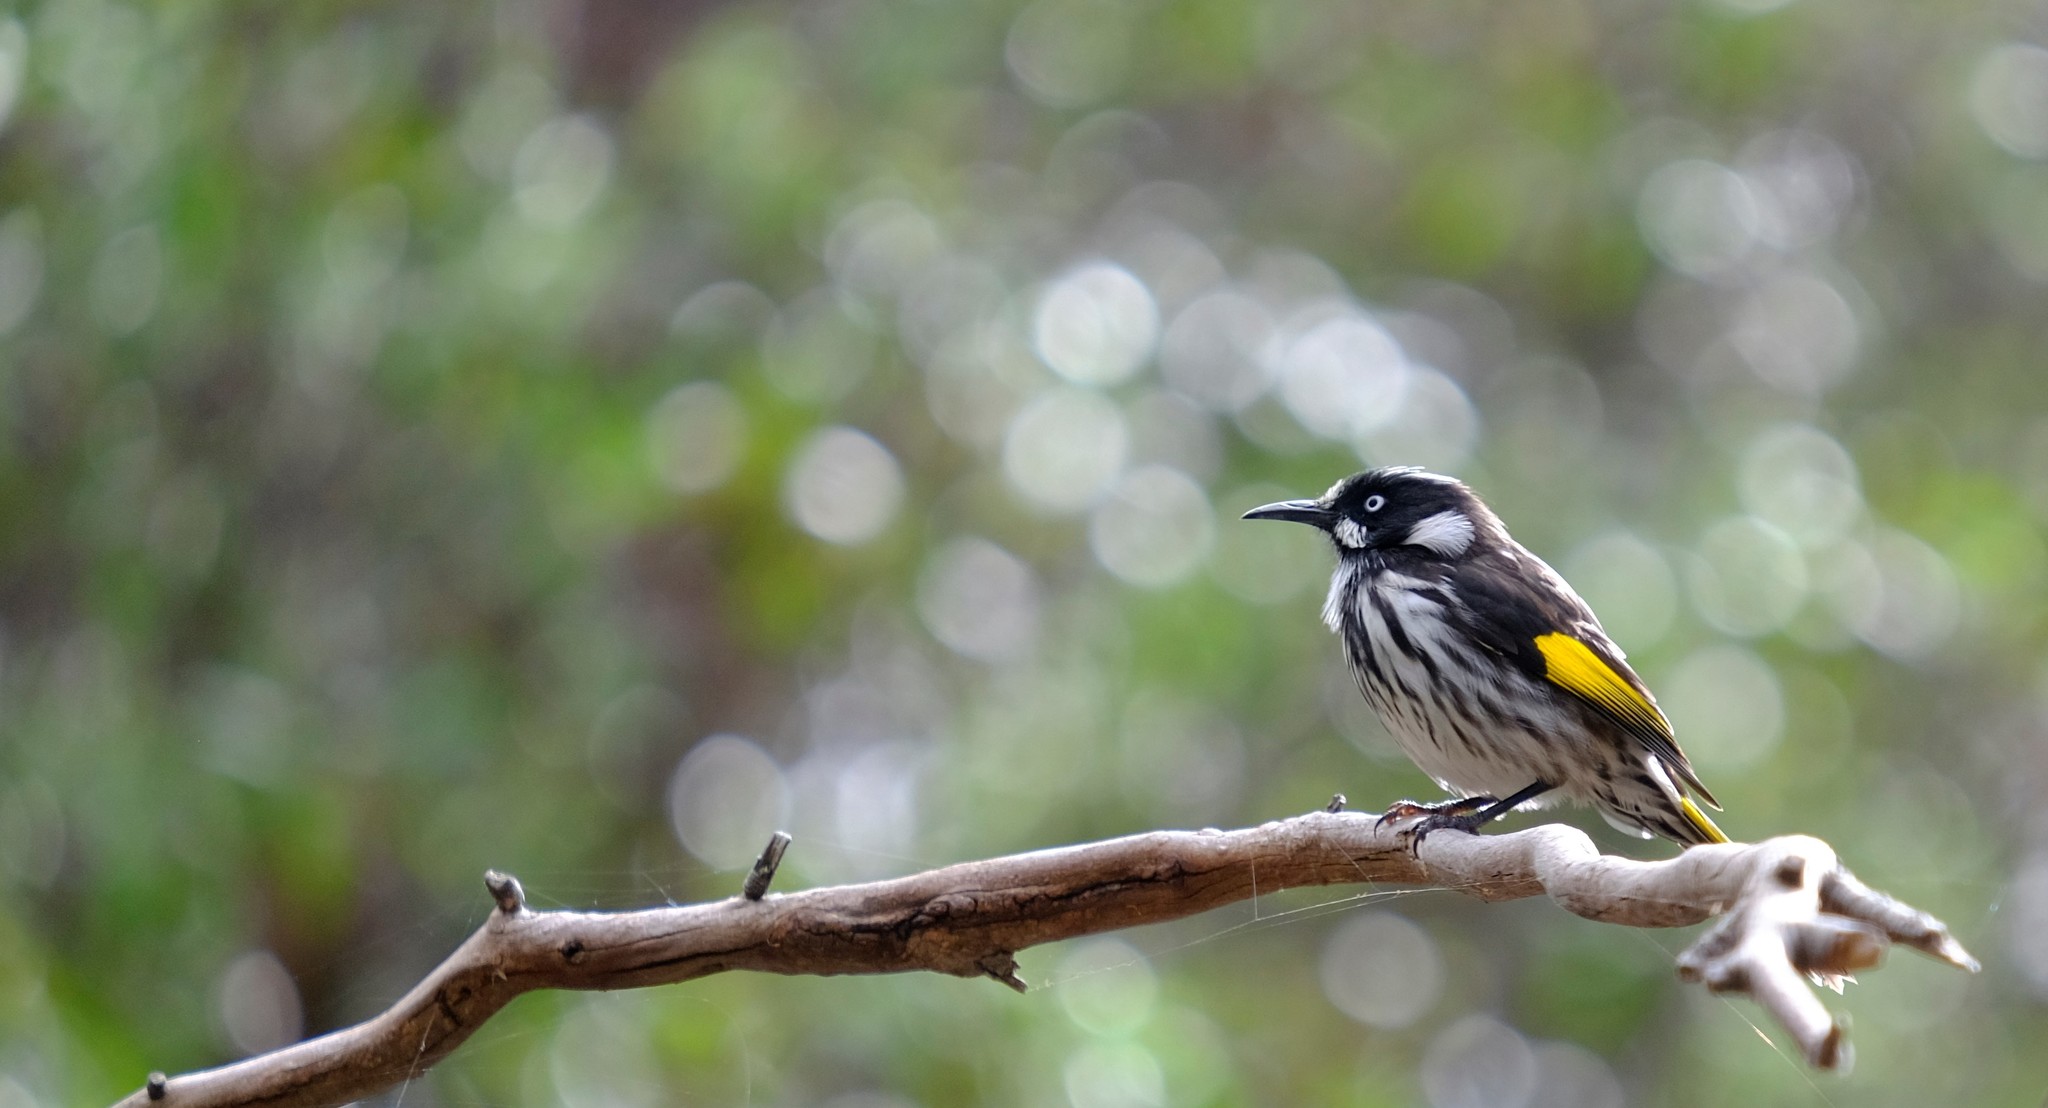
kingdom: Animalia
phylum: Chordata
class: Aves
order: Passeriformes
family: Meliphagidae
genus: Phylidonyris
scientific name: Phylidonyris novaehollandiae
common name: New holland honeyeater
